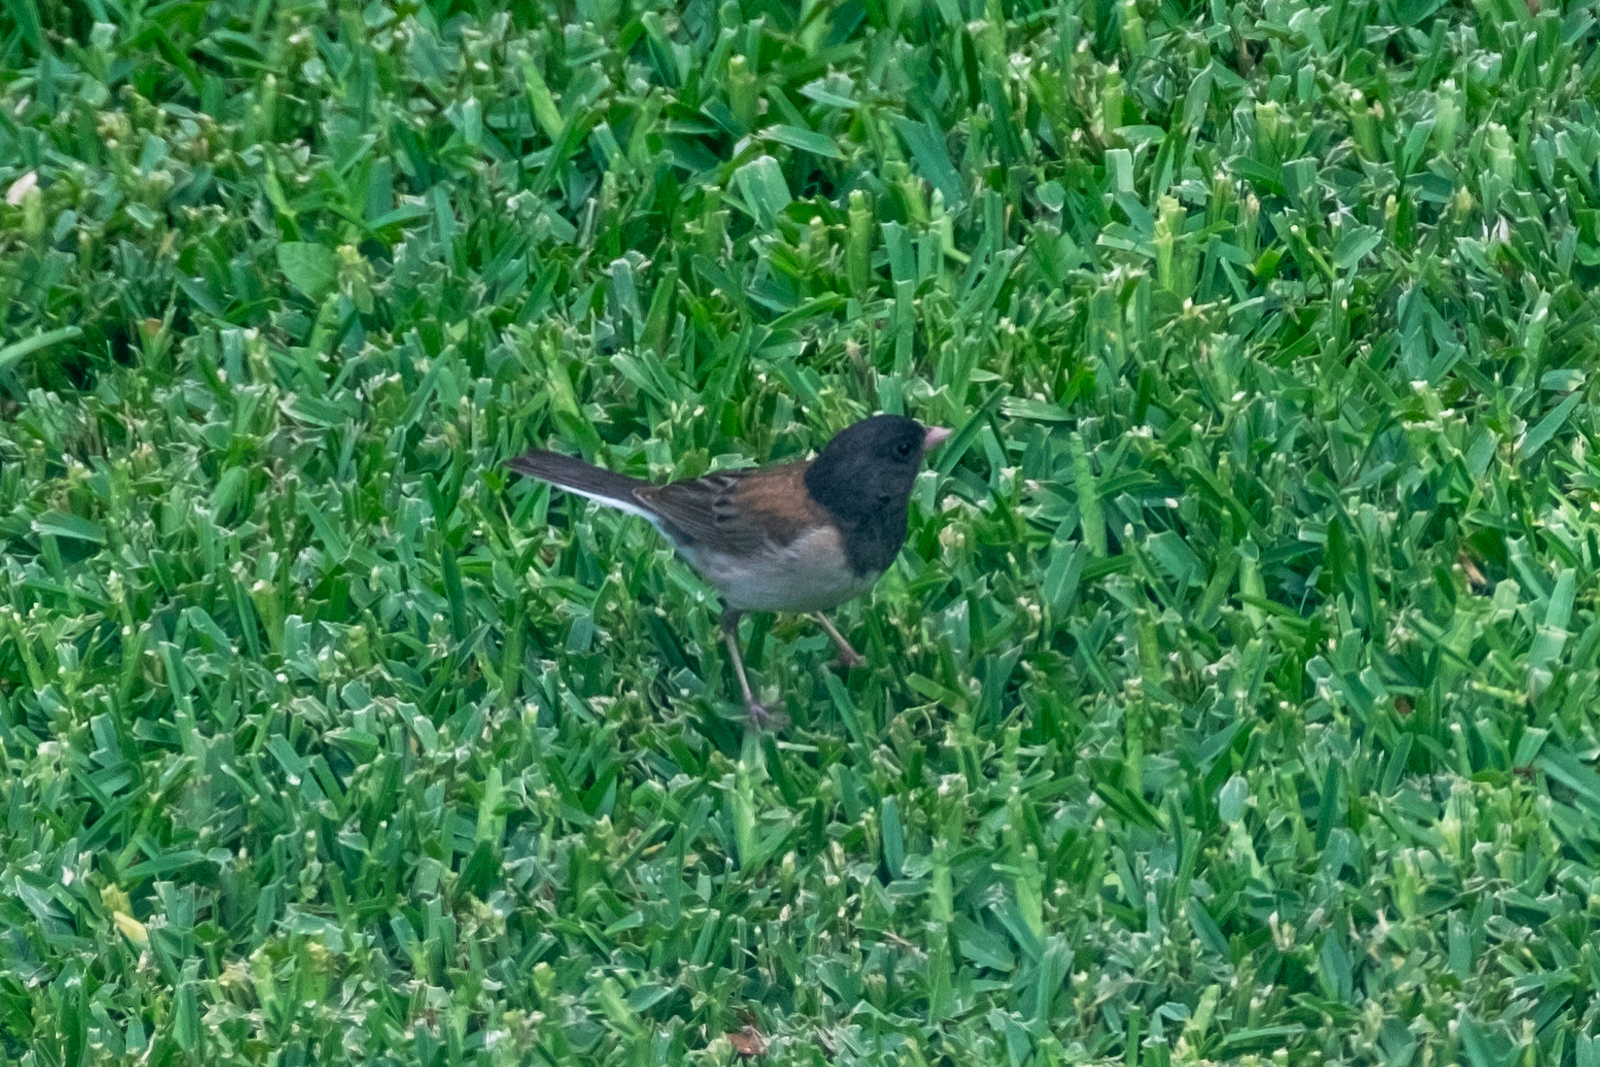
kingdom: Animalia
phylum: Chordata
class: Aves
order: Passeriformes
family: Passerellidae
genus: Junco
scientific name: Junco hyemalis
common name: Dark-eyed junco
